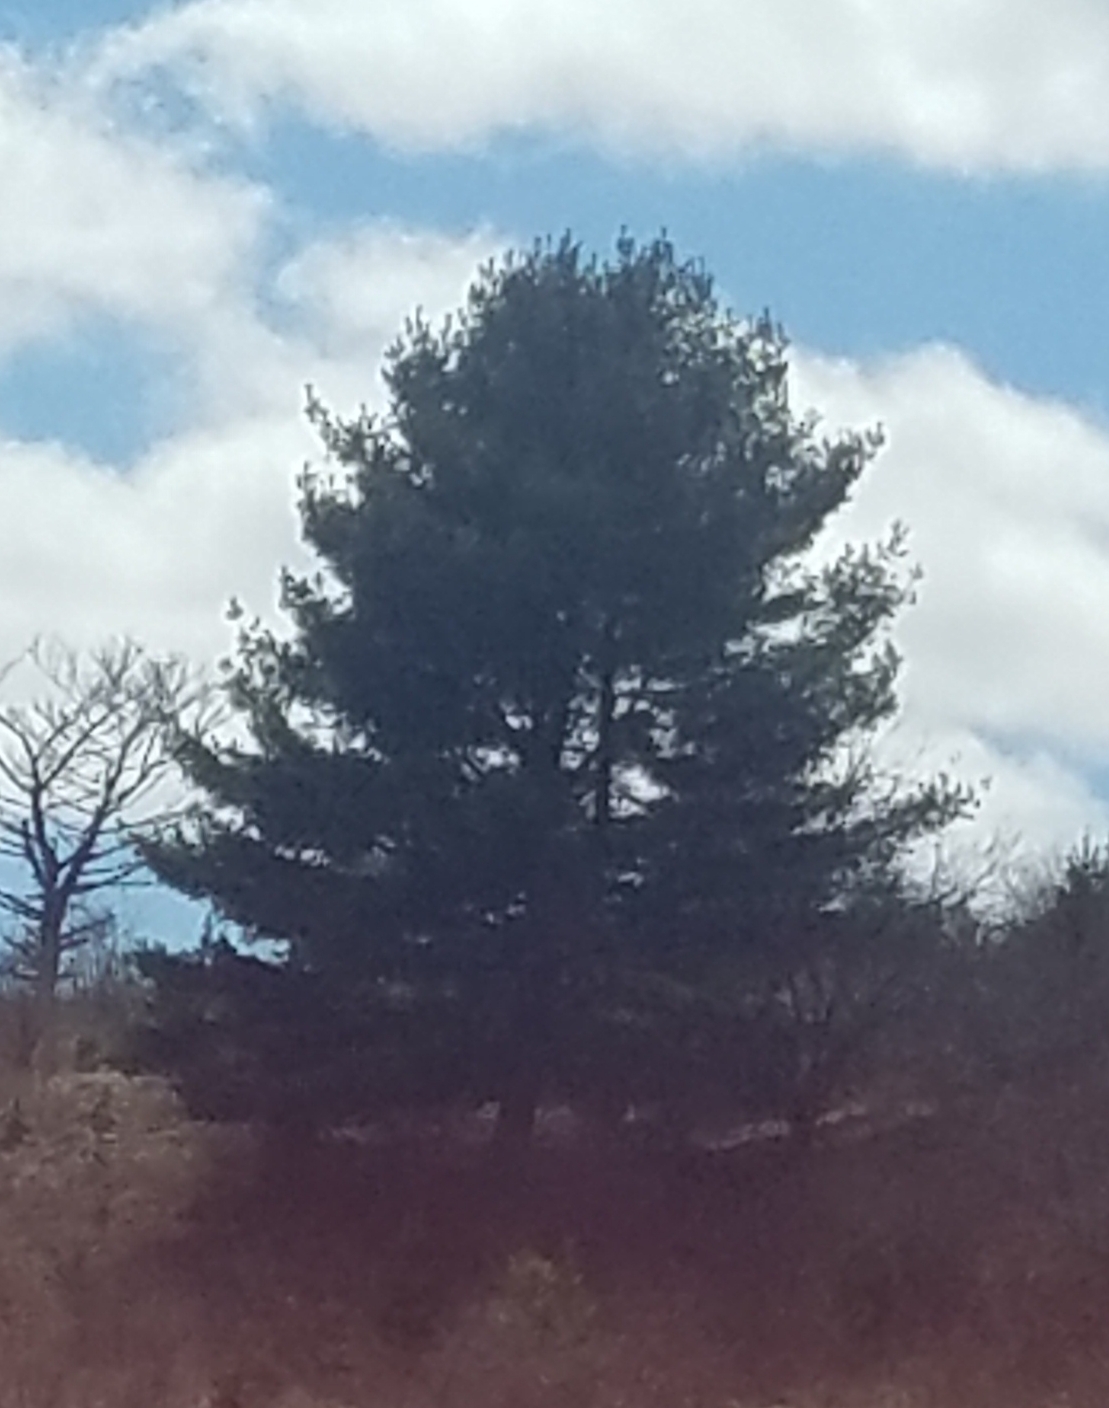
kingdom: Plantae
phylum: Tracheophyta
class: Pinopsida
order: Pinales
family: Pinaceae
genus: Pinus
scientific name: Pinus strobus
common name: Weymouth pine
